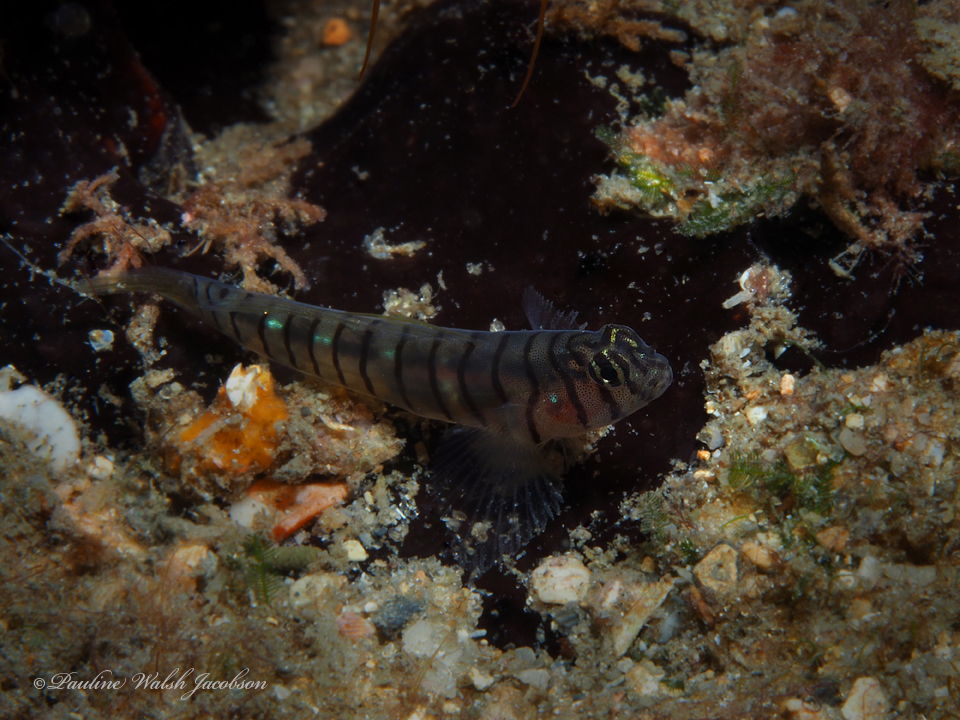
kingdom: Animalia
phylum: Chordata
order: Perciformes
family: Gobiidae
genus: Tigrigobius
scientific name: Tigrigobius macrodon
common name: Tiger goby
